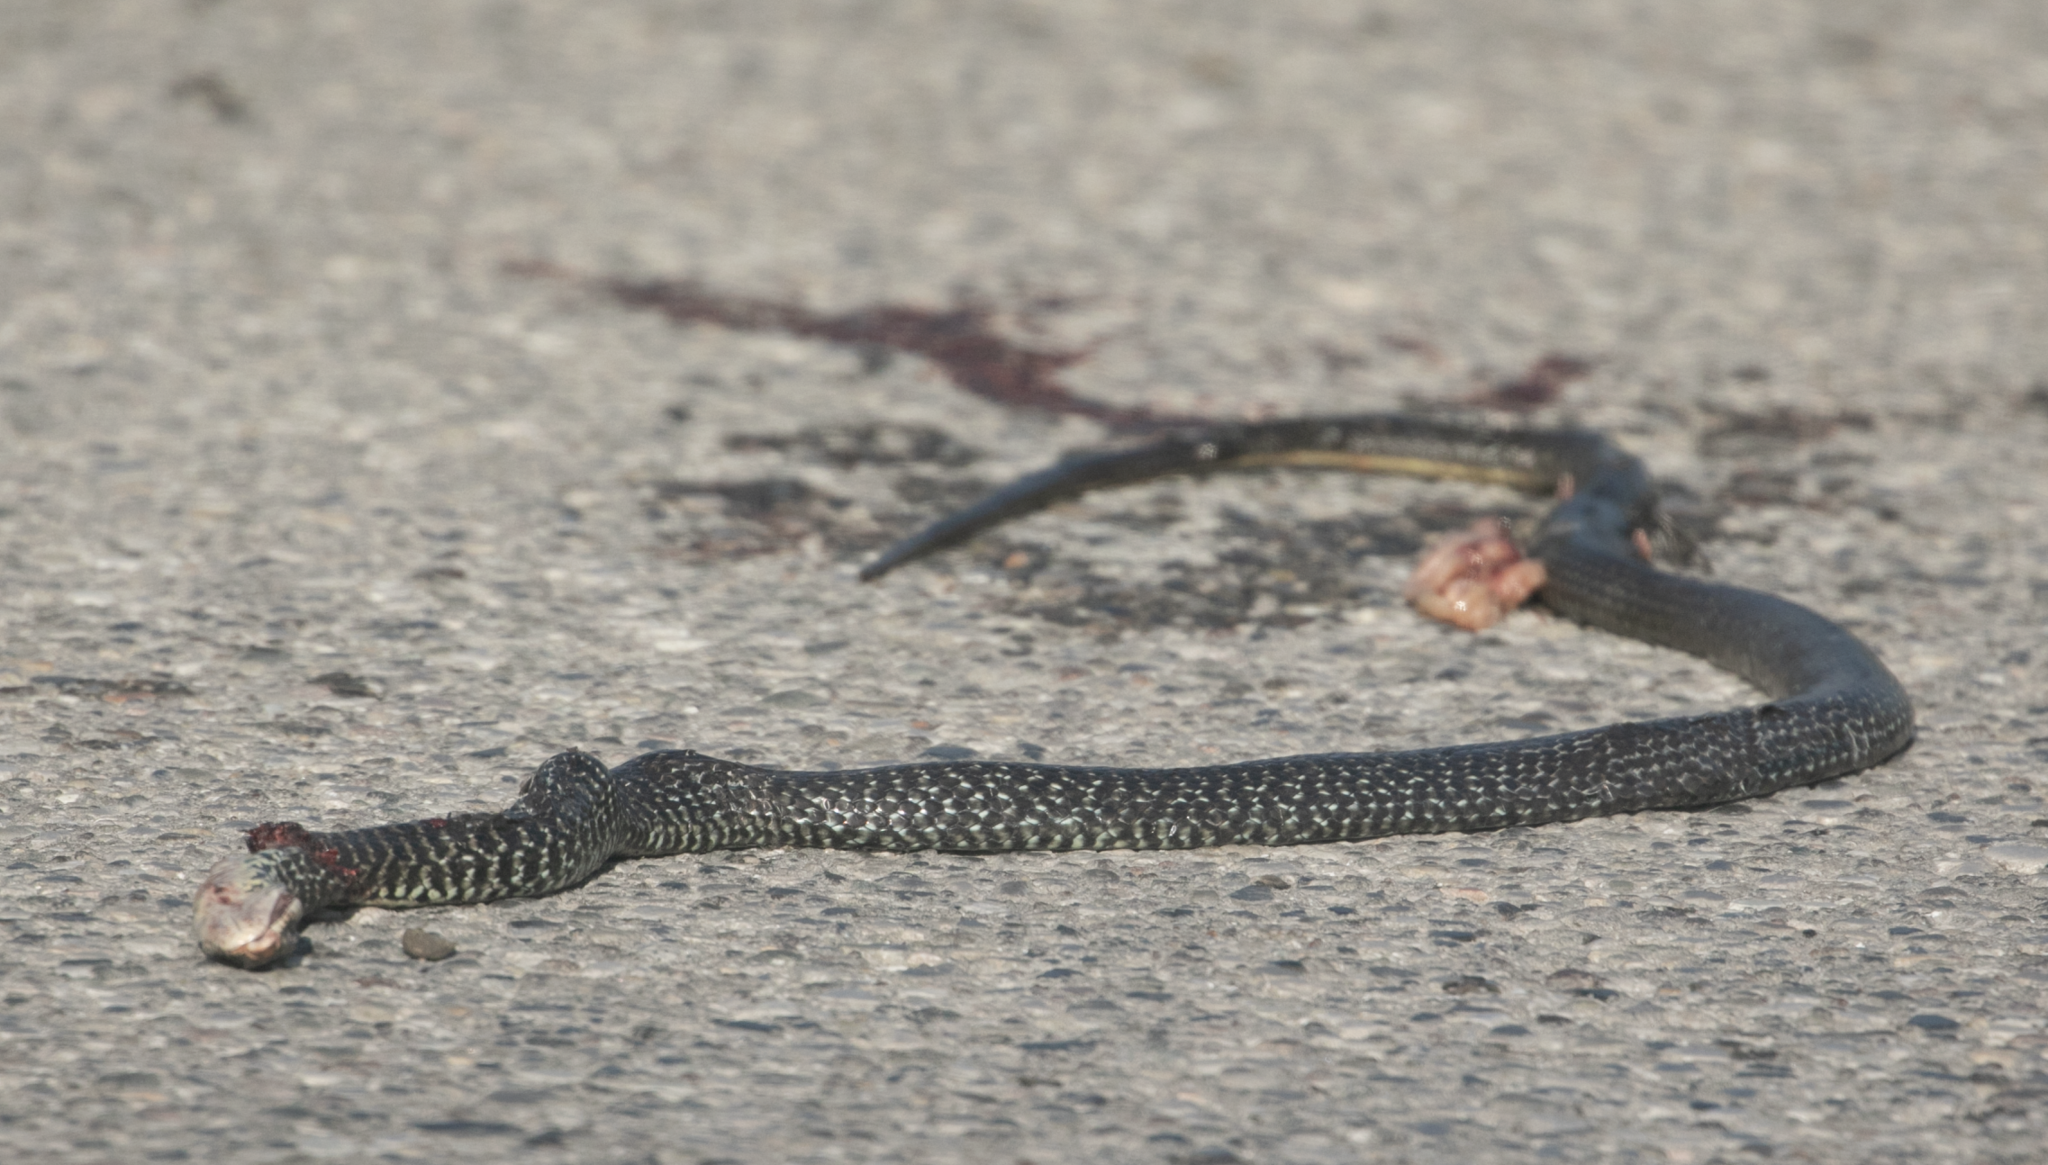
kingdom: Animalia
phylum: Chordata
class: Squamata
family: Colubridae
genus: Hierophis
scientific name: Hierophis viridiflavus
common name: Green whip snake
